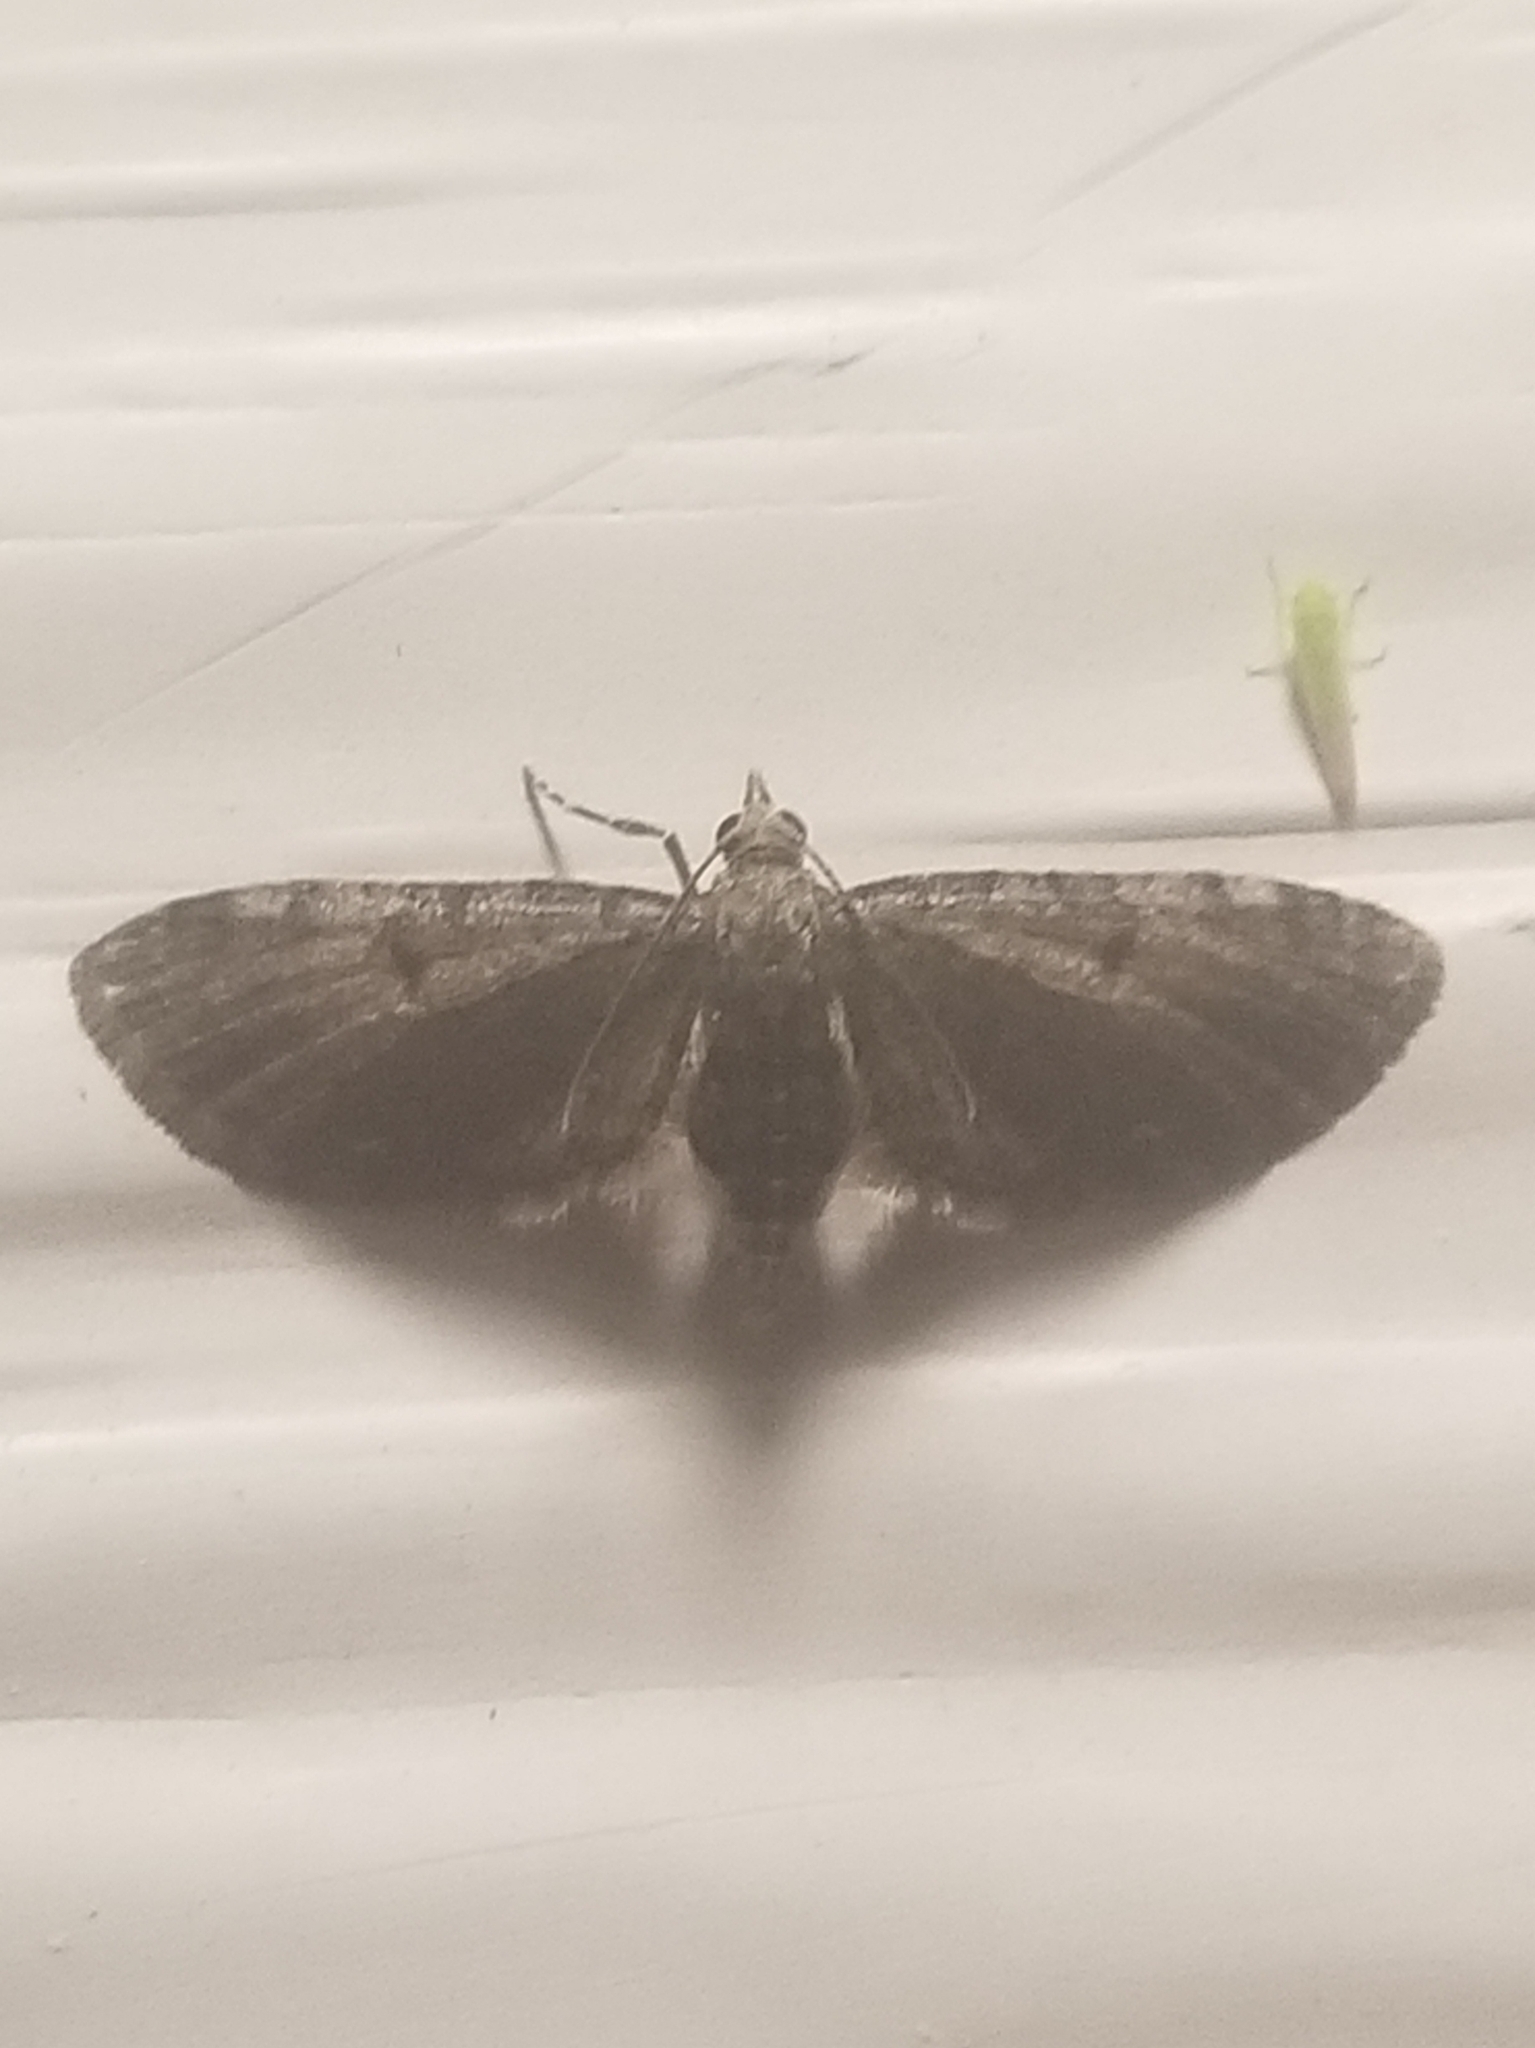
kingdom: Animalia
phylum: Arthropoda
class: Insecta
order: Lepidoptera
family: Geometridae
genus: Eupithecia
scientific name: Eupithecia miserulata
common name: Common eupithecia
